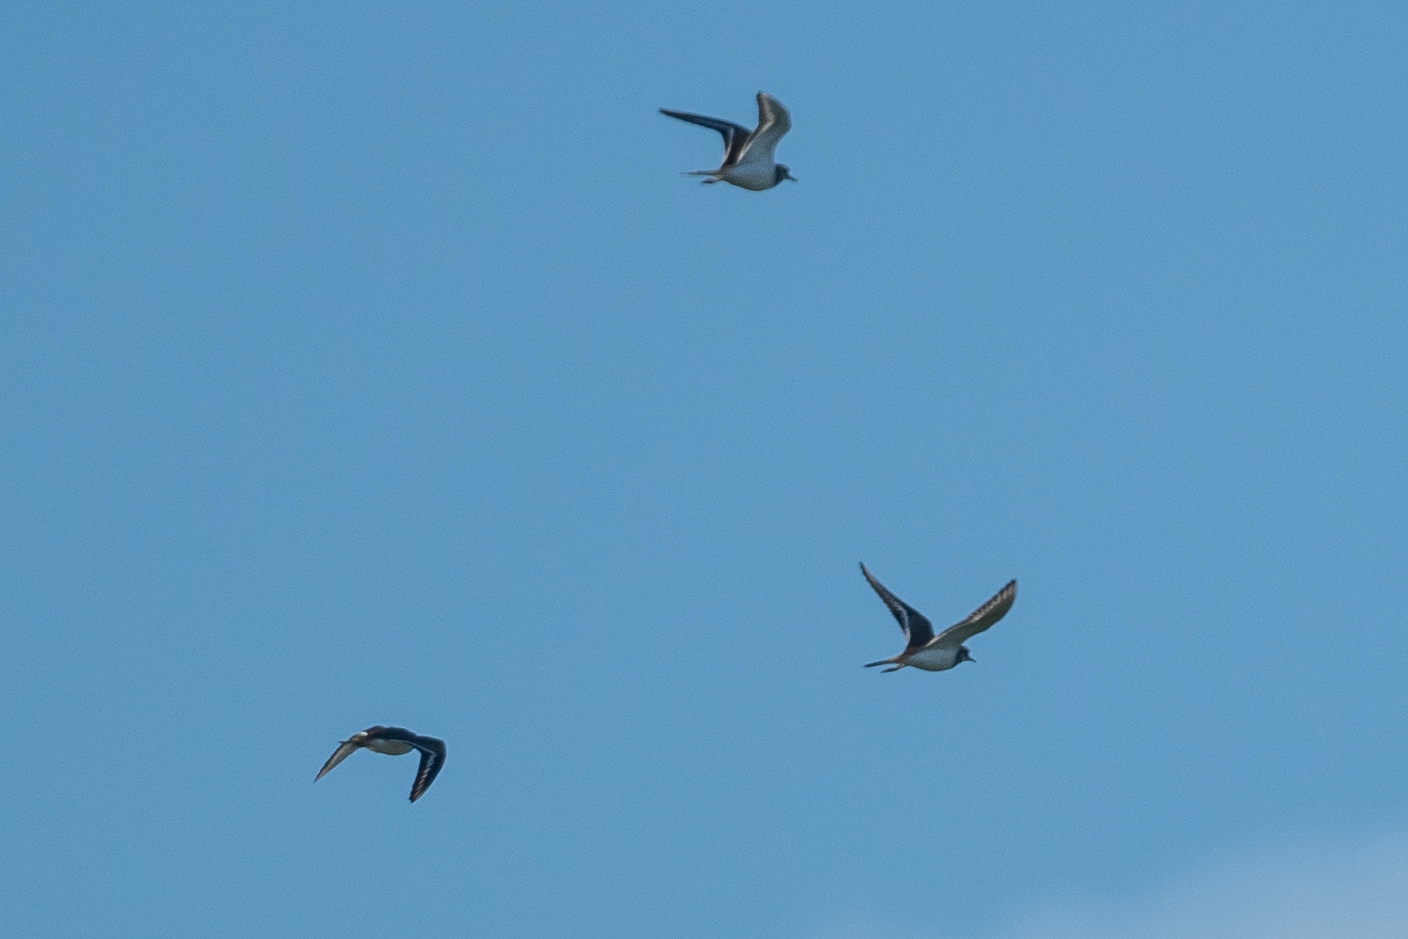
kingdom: Animalia
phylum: Chordata
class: Aves
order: Charadriiformes
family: Charadriidae
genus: Charadrius
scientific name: Charadrius vociferus
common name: Killdeer
